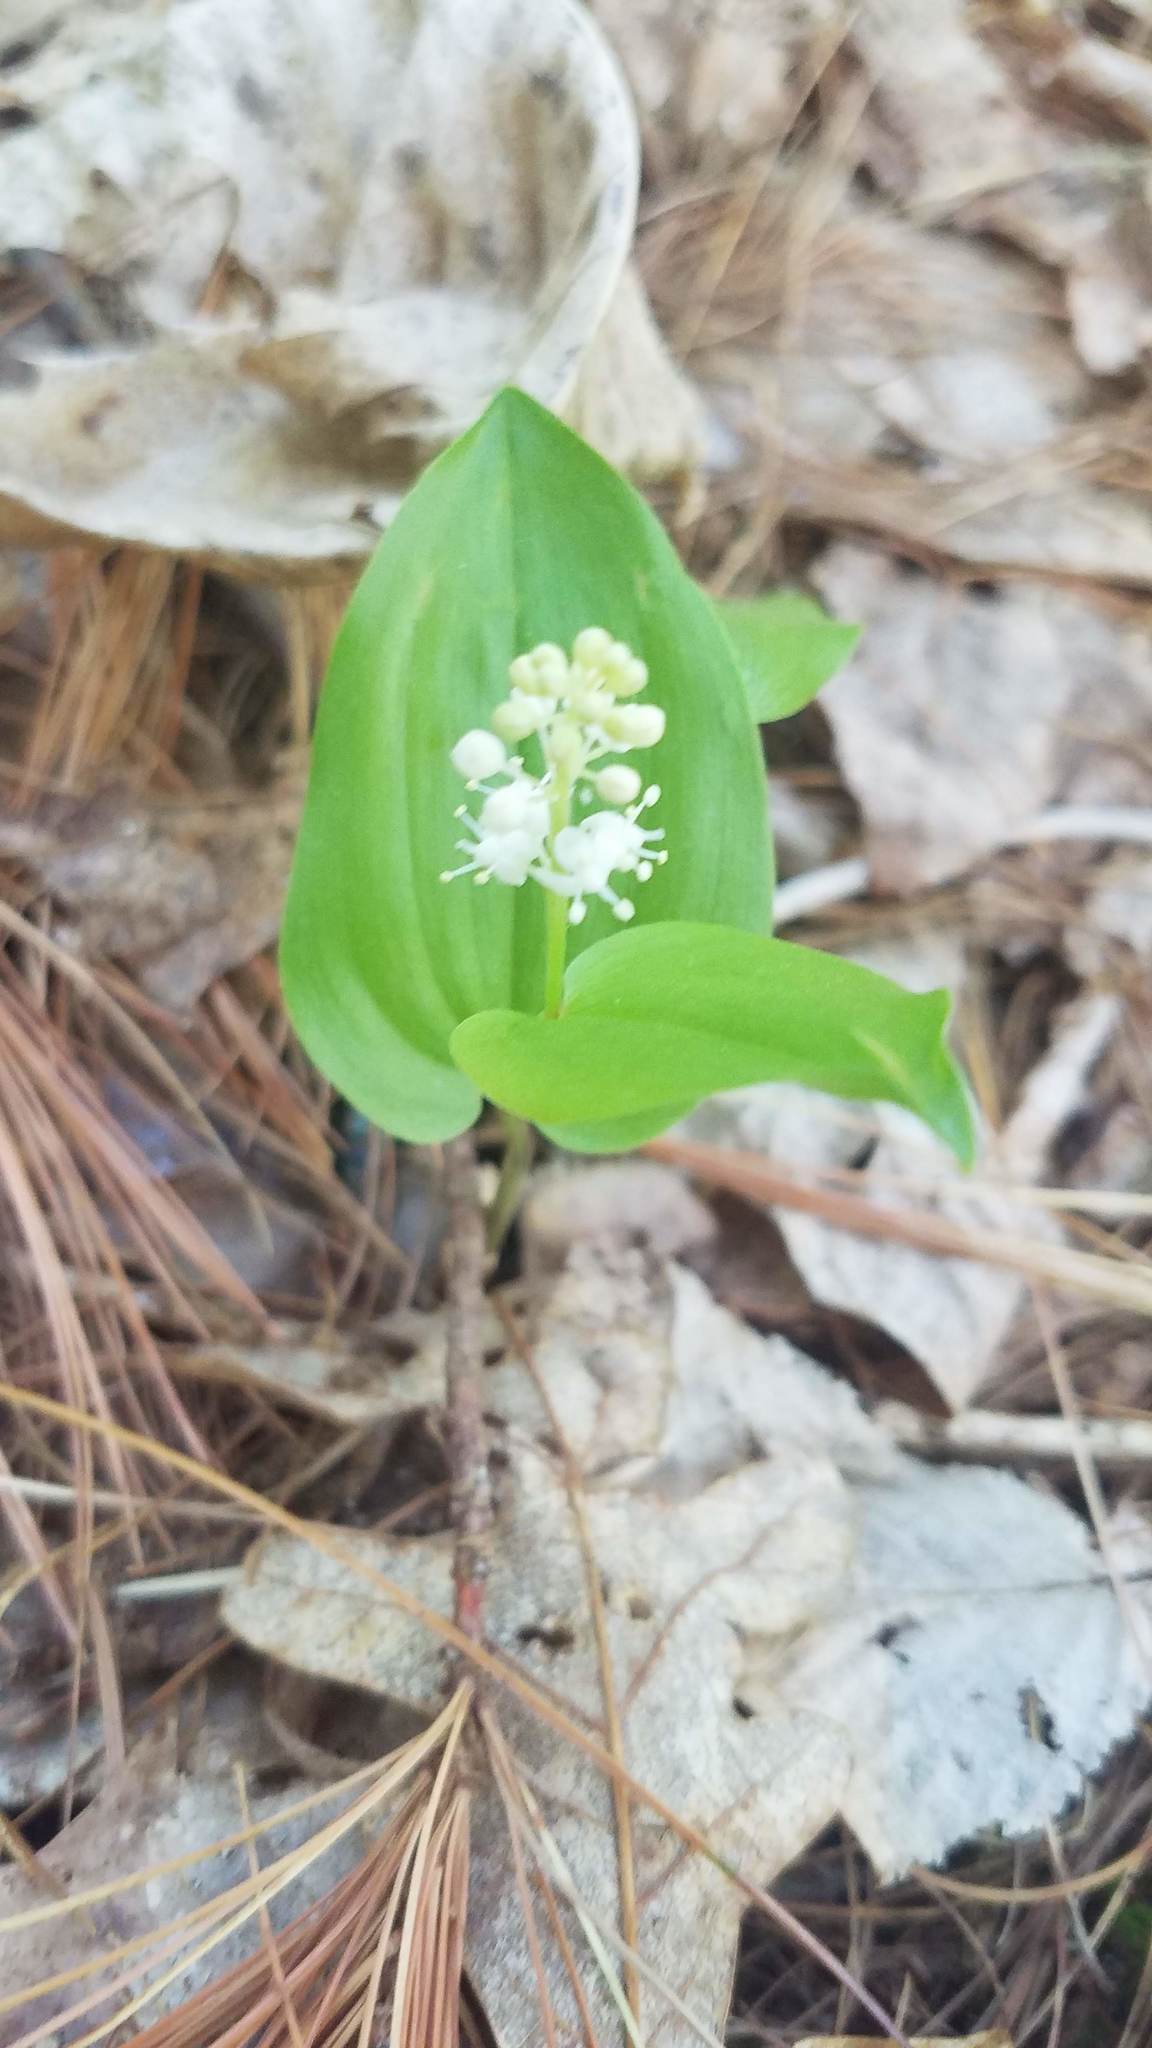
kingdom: Plantae
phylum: Tracheophyta
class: Liliopsida
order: Asparagales
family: Asparagaceae
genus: Maianthemum
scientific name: Maianthemum canadense
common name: False lily-of-the-valley
